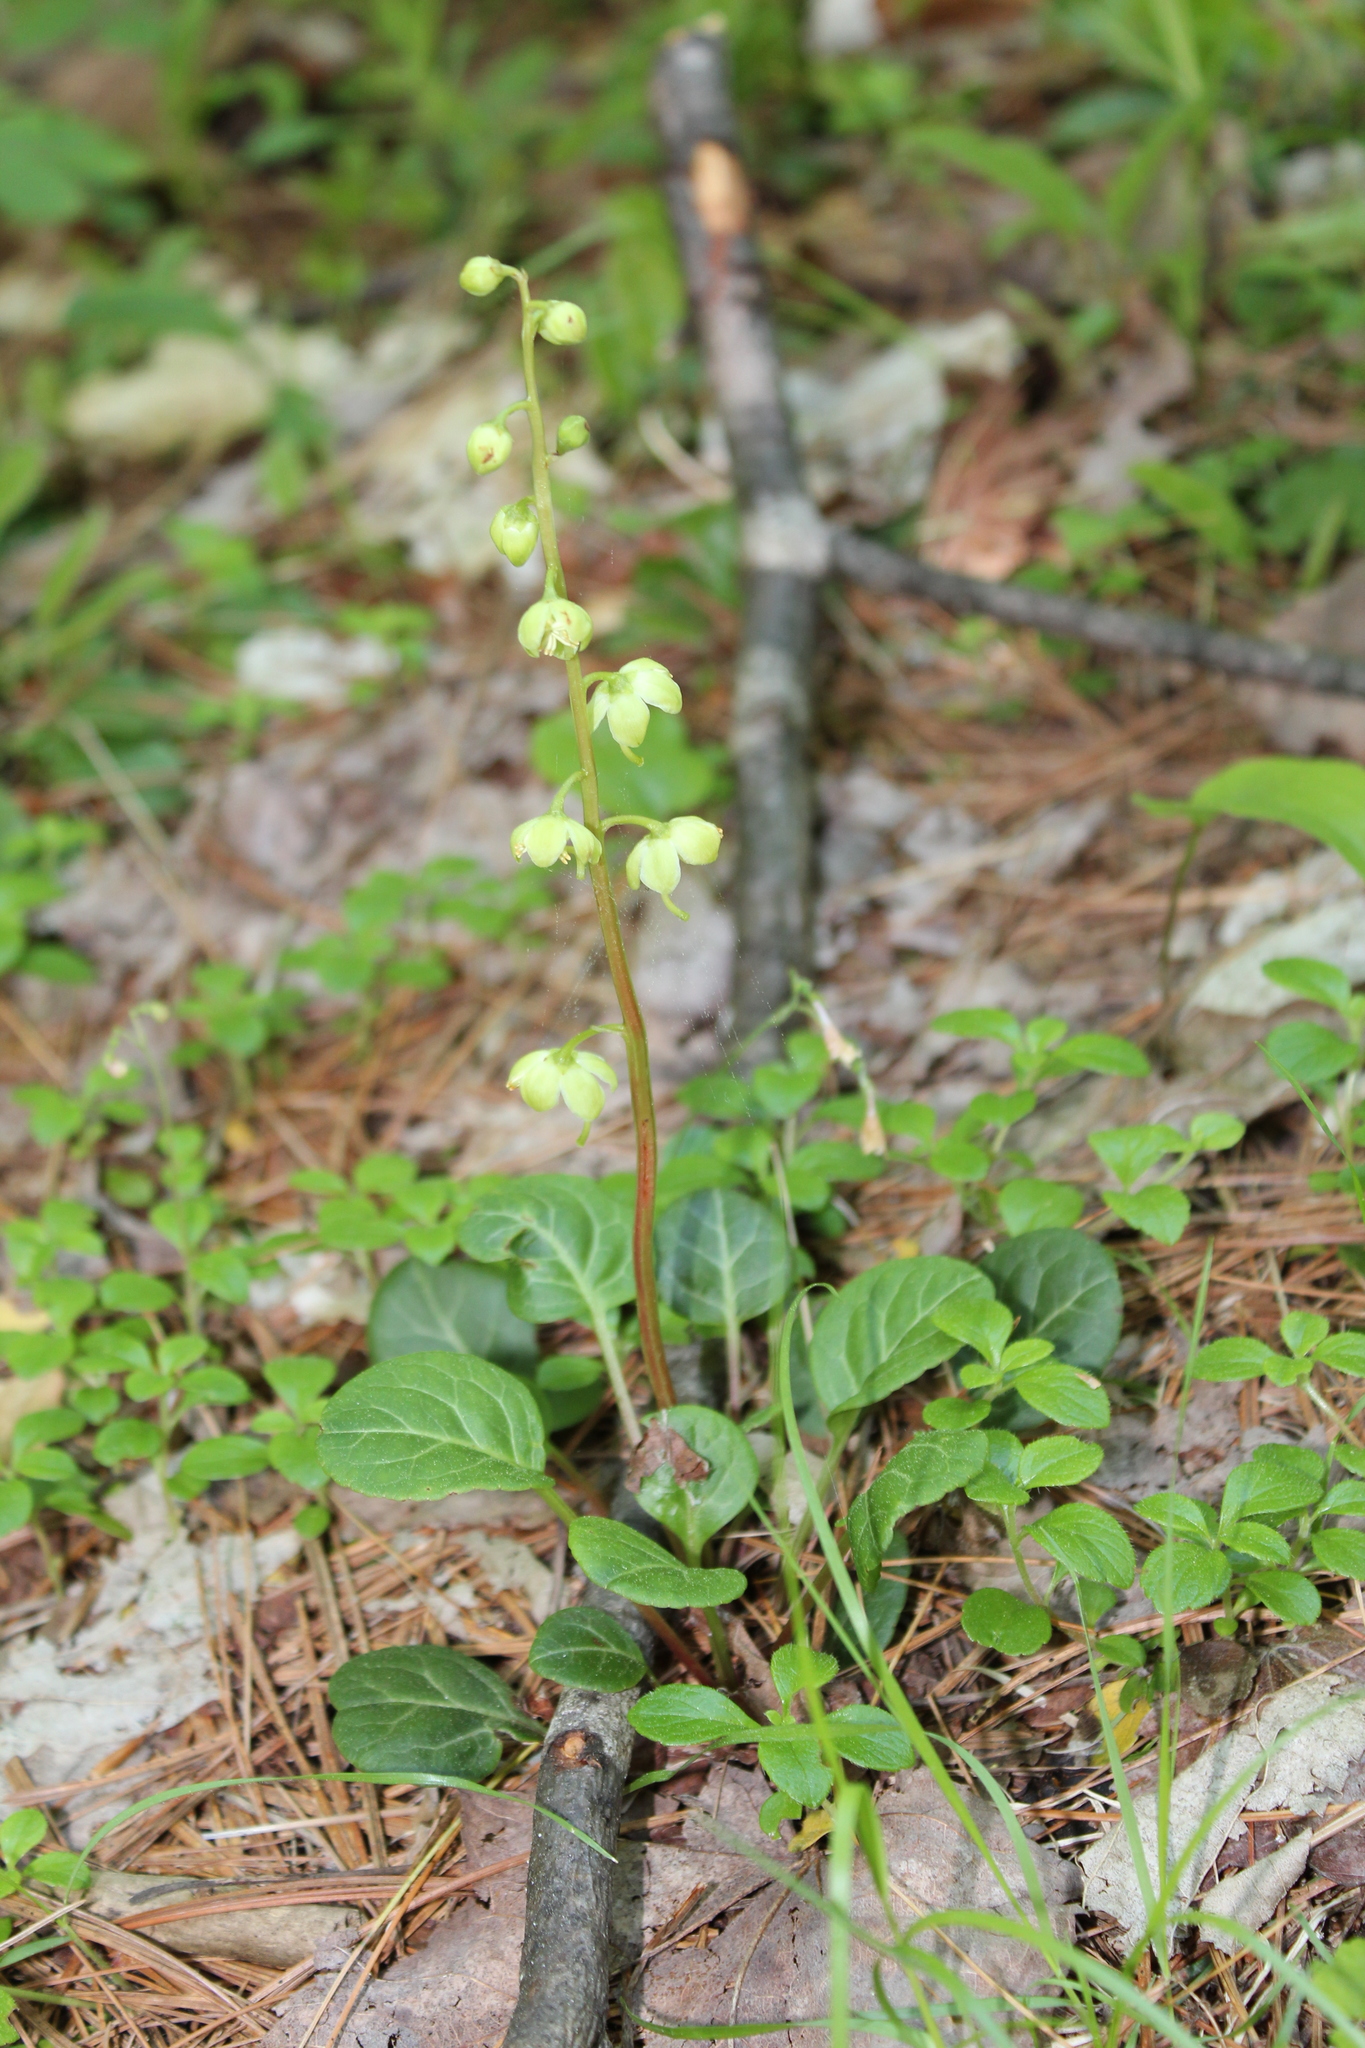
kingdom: Plantae
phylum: Tracheophyta
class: Magnoliopsida
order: Ericales
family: Ericaceae
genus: Pyrola
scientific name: Pyrola chlorantha
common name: Green wintergreen
